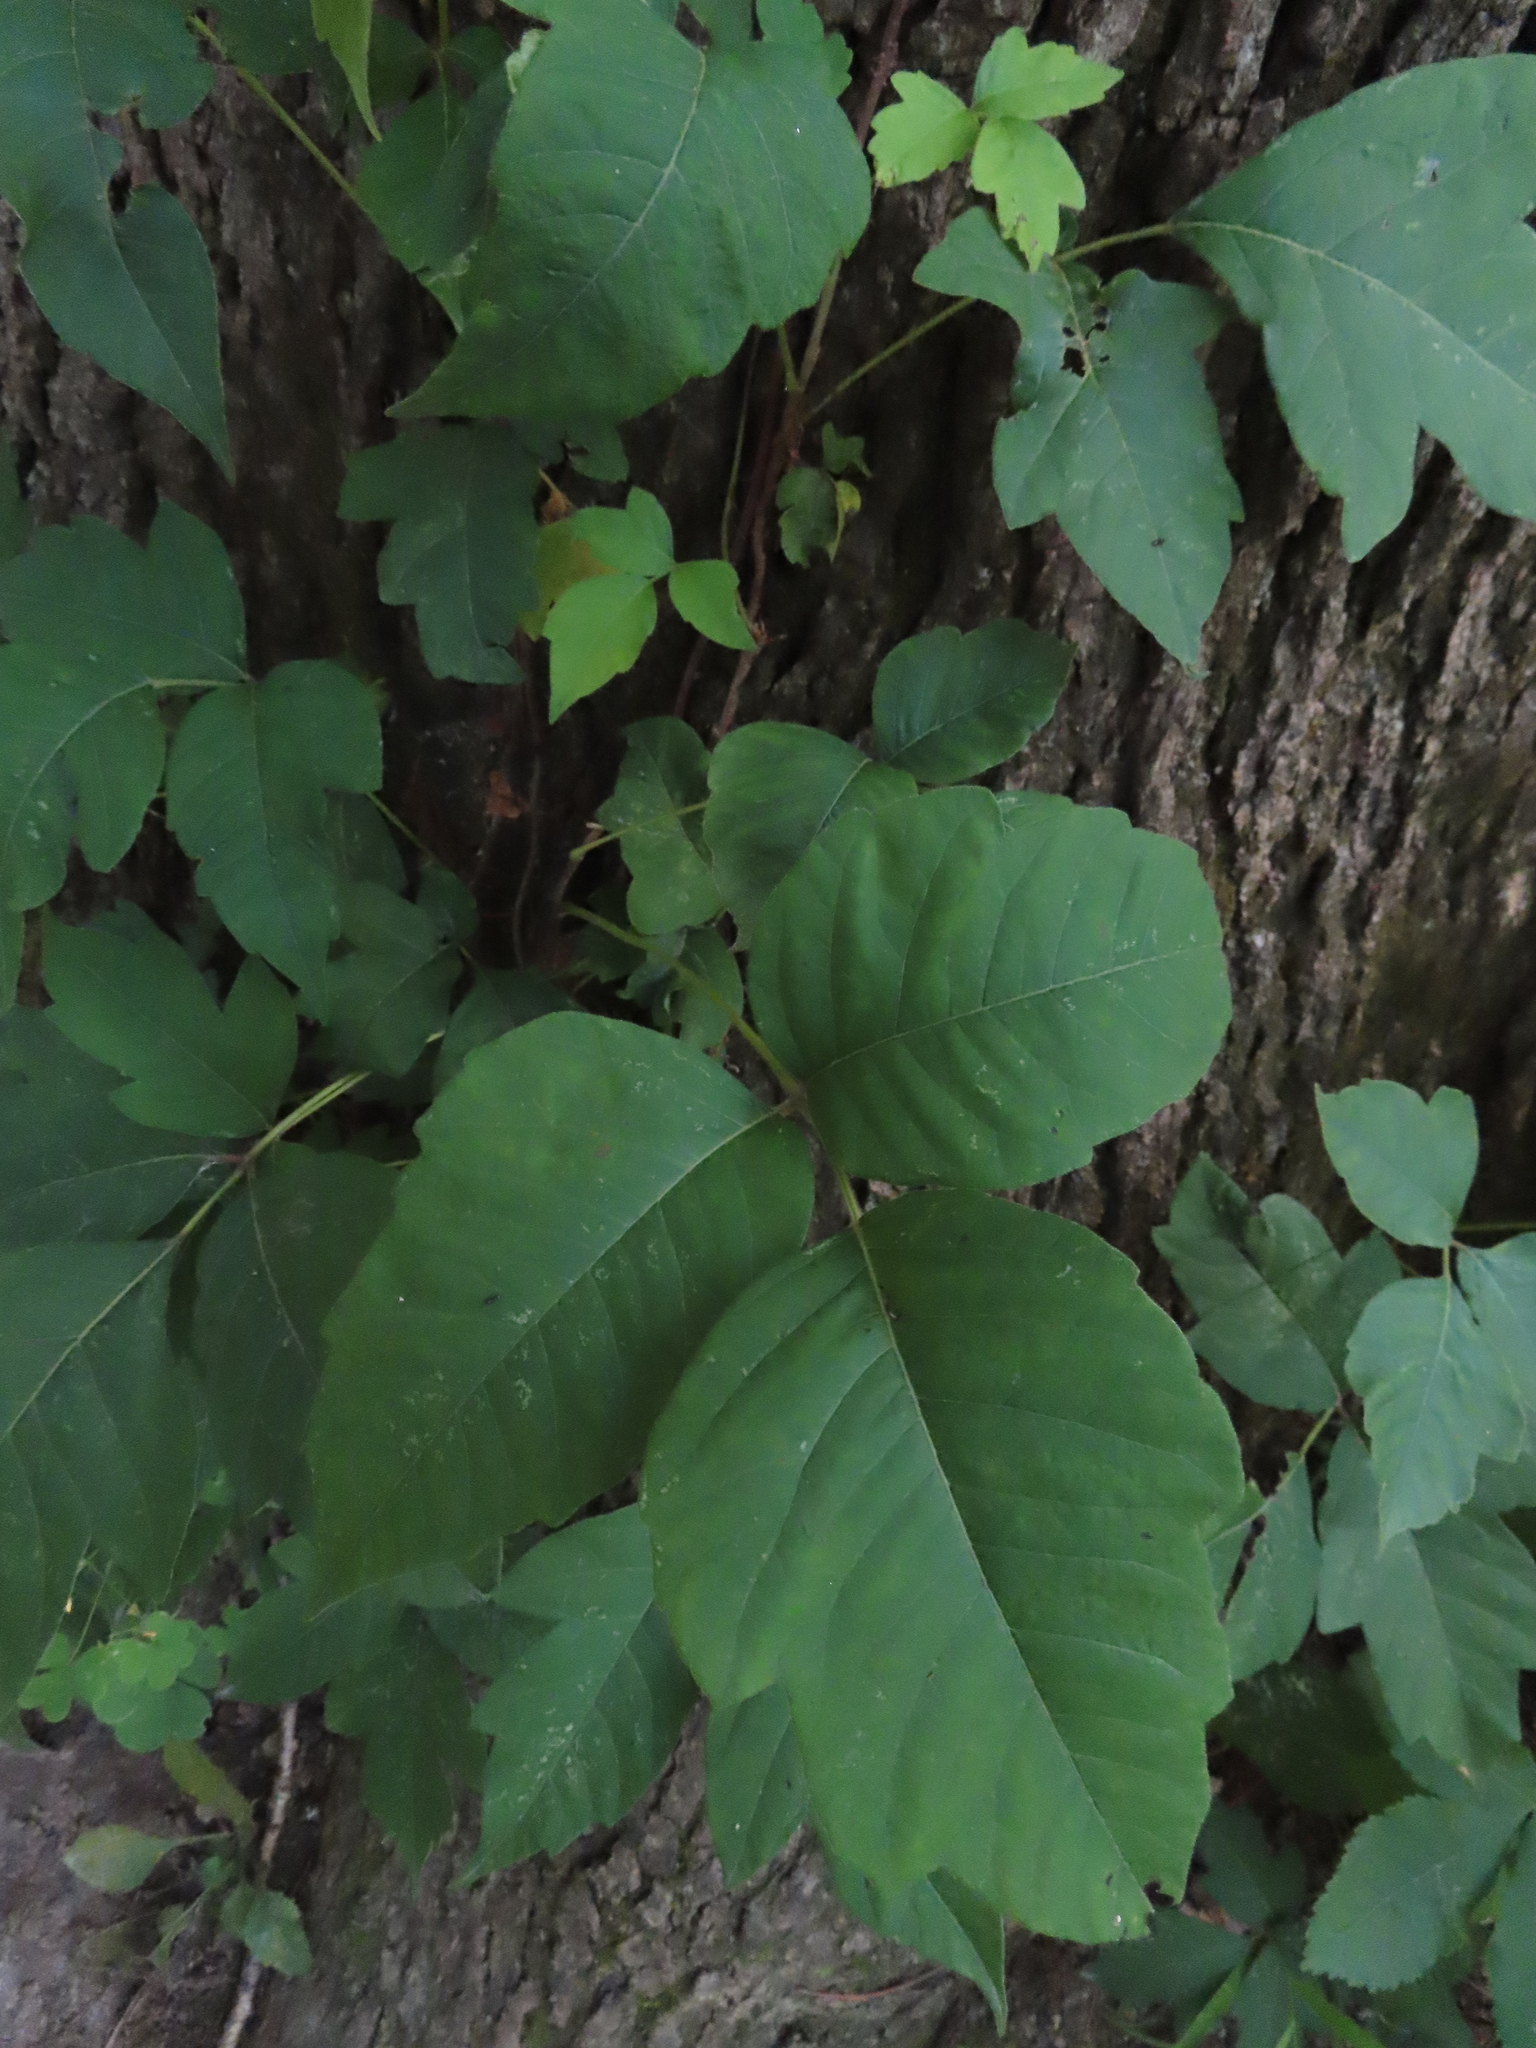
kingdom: Plantae
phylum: Tracheophyta
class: Magnoliopsida
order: Sapindales
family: Anacardiaceae
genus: Toxicodendron
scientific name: Toxicodendron radicans
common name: Poison ivy
